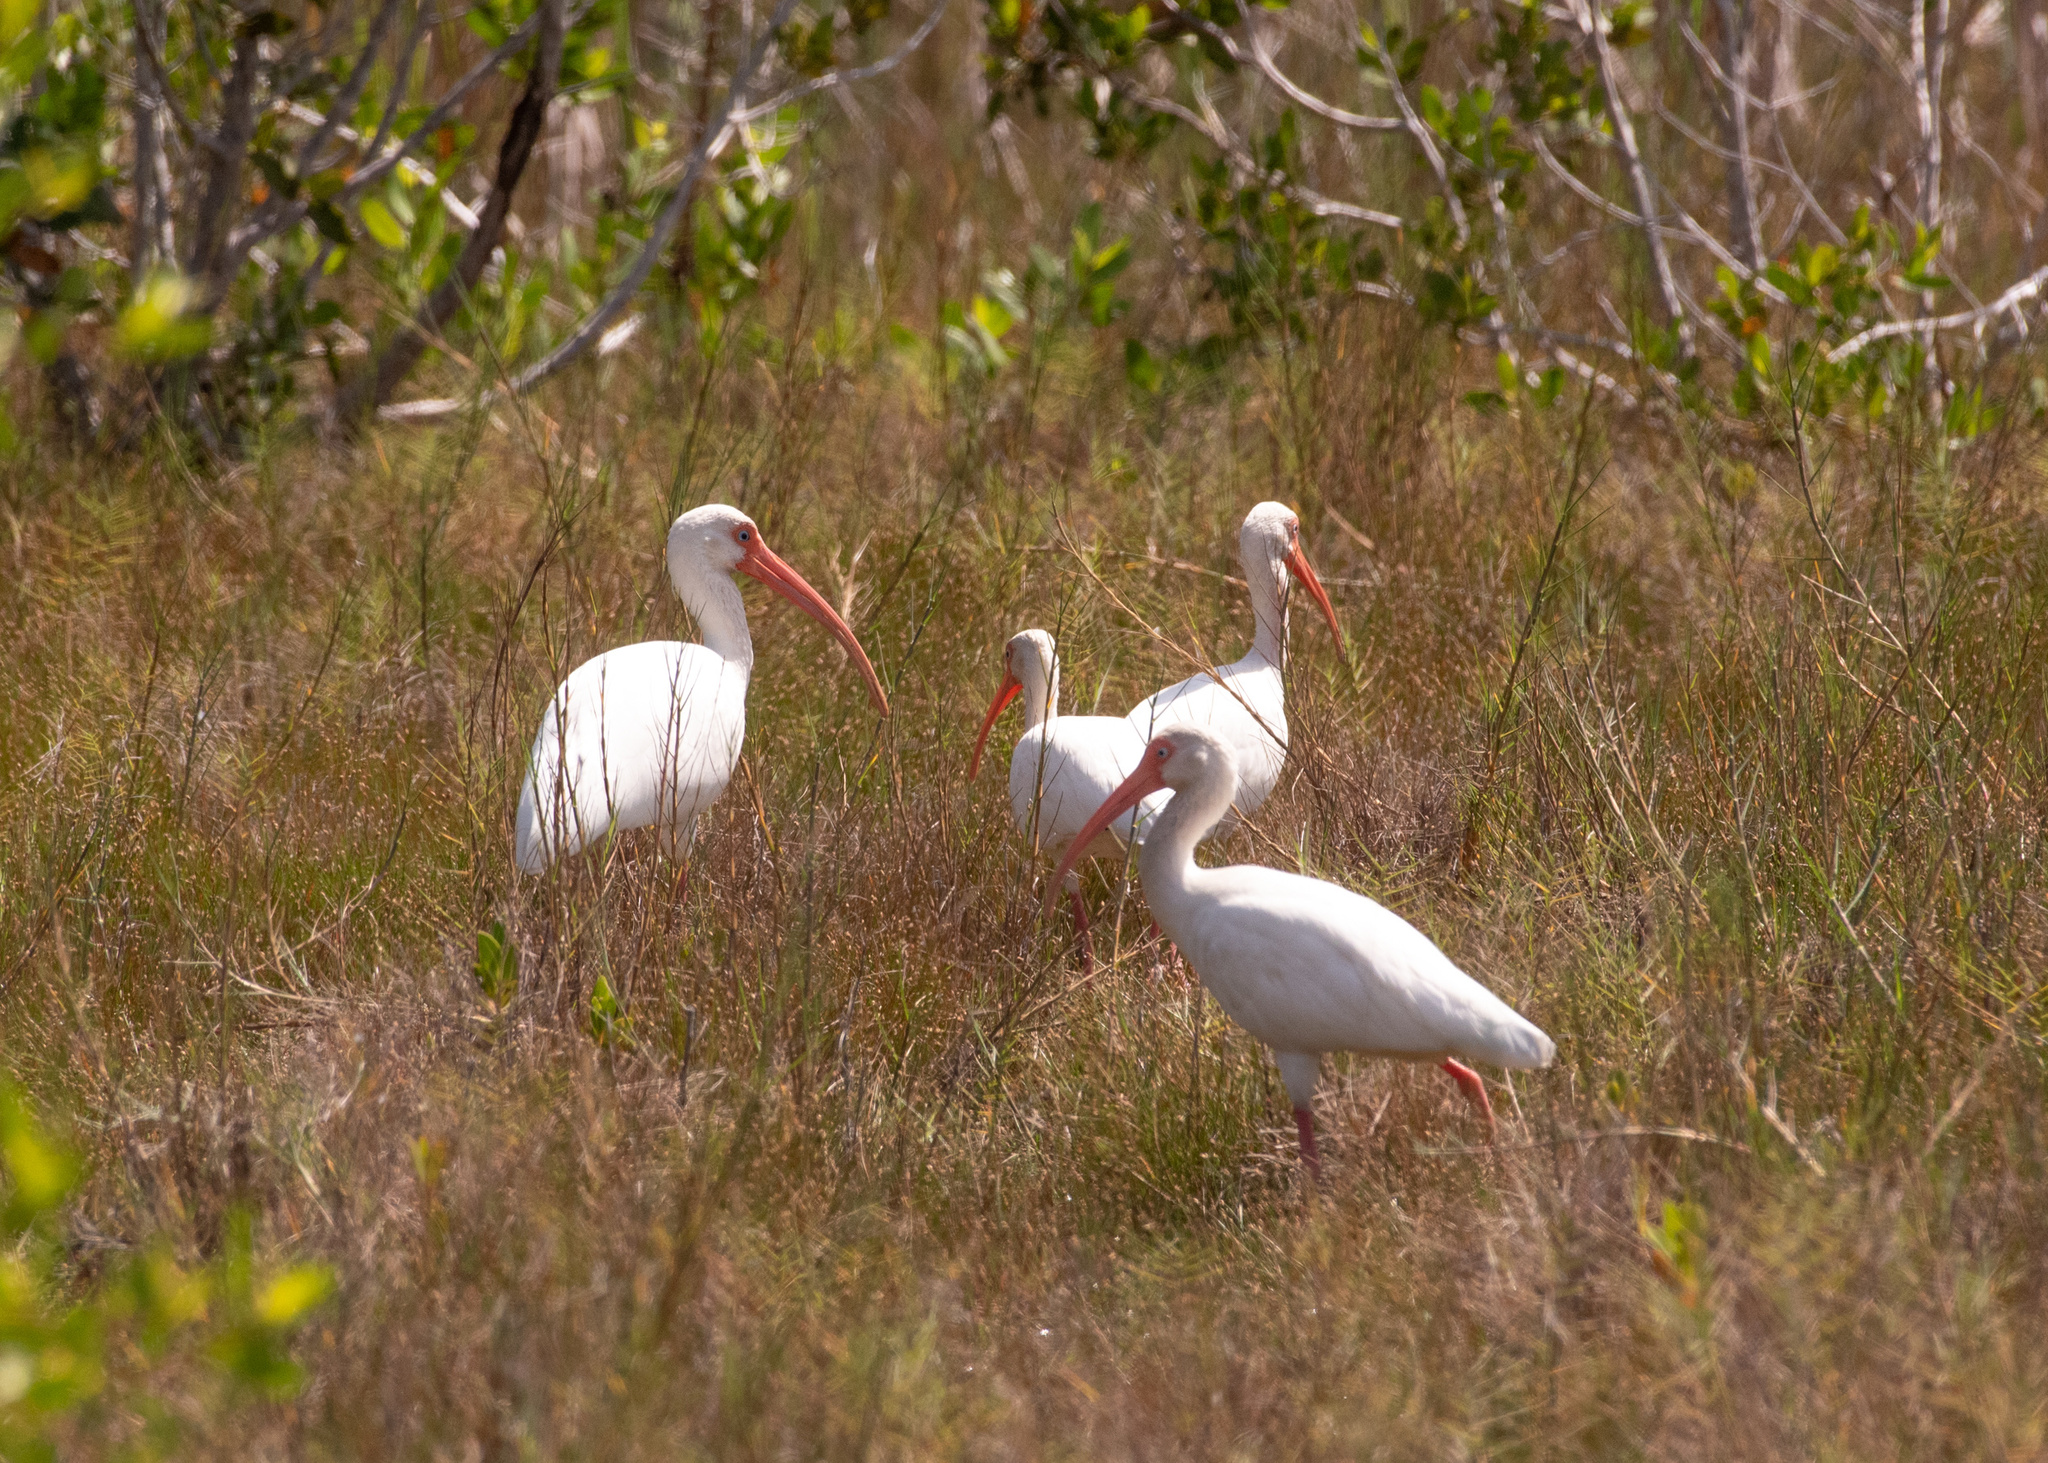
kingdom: Animalia
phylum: Chordata
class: Aves
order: Pelecaniformes
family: Threskiornithidae
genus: Eudocimus
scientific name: Eudocimus albus
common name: White ibis
